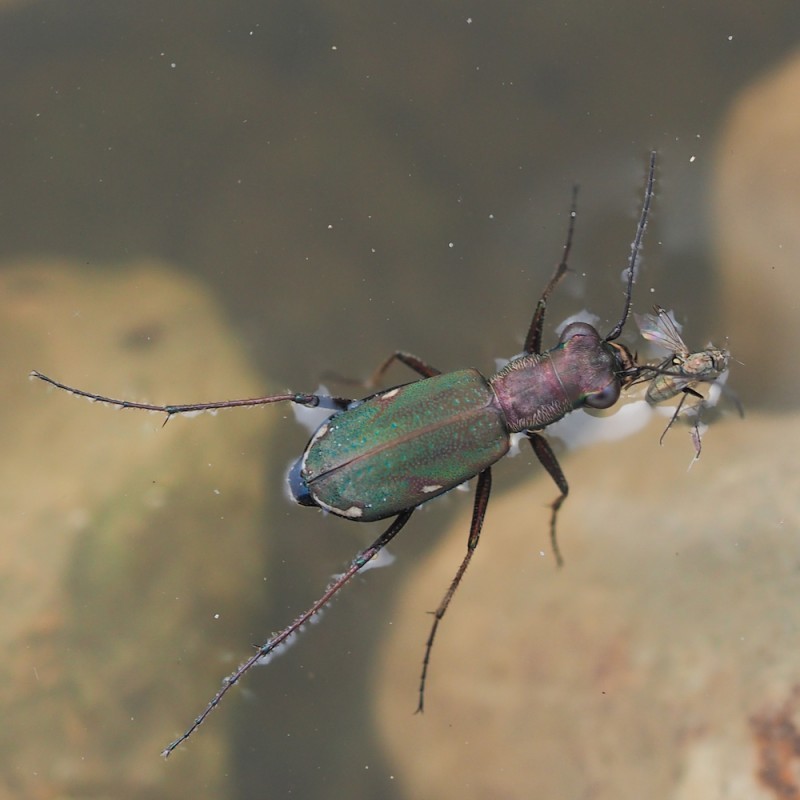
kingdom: Animalia
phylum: Arthropoda
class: Insecta
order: Coleoptera
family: Carabidae
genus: Cylindera
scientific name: Cylindera germanica
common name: Cliff tiger beetle
